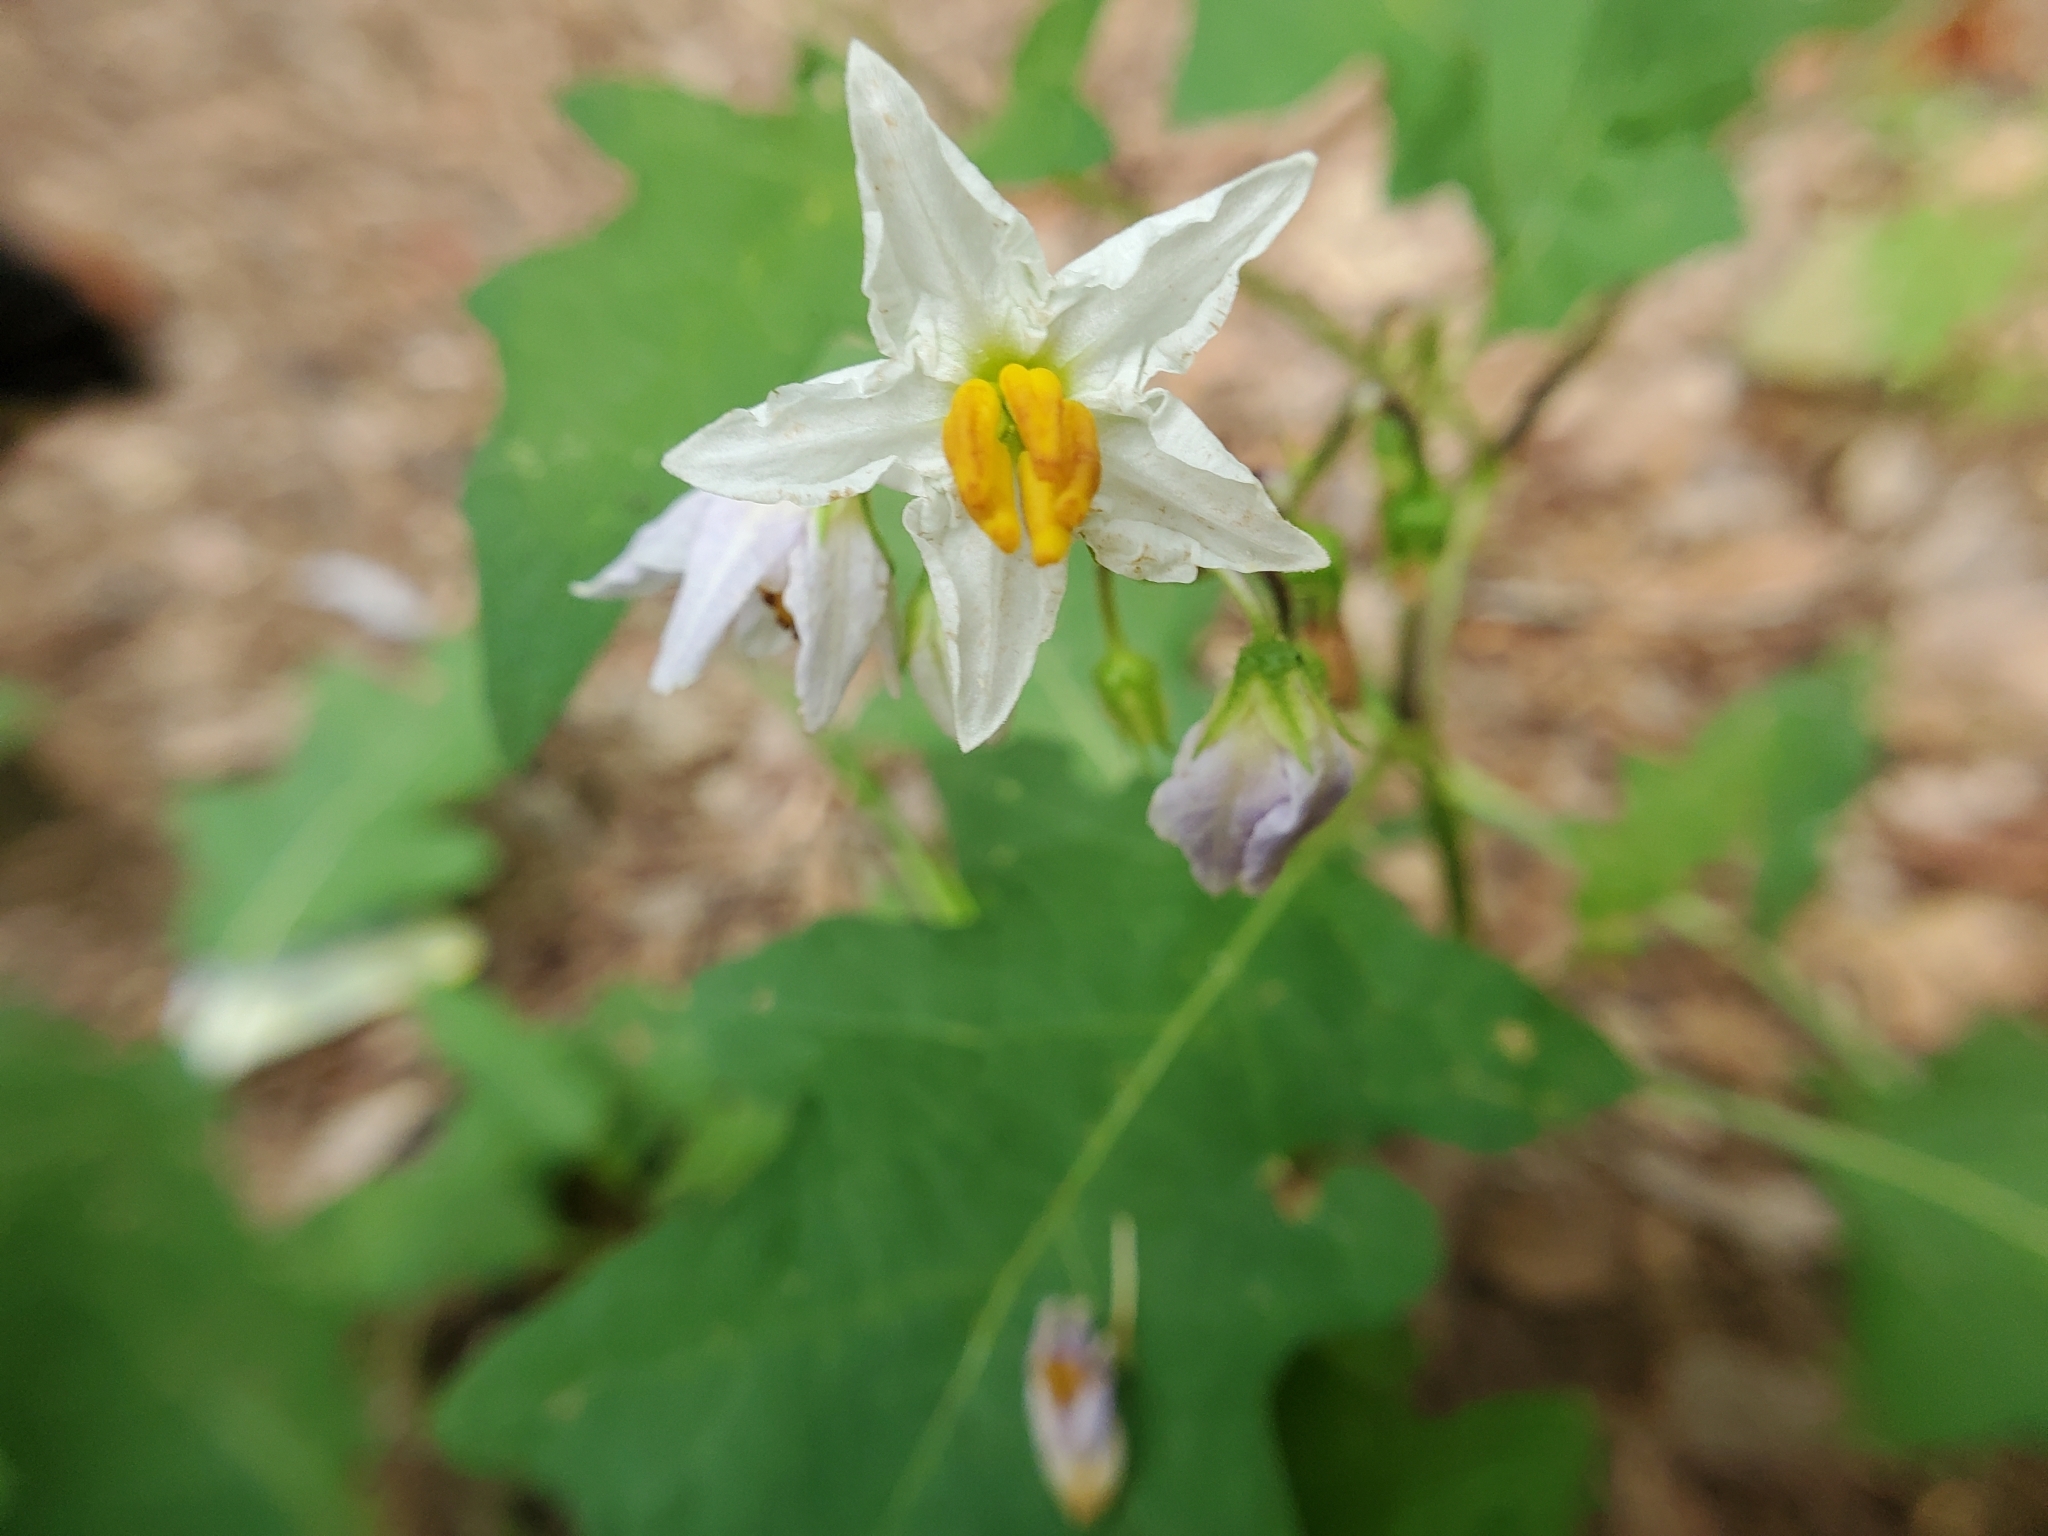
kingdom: Plantae
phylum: Tracheophyta
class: Magnoliopsida
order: Solanales
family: Solanaceae
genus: Solanum
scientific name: Solanum carolinense
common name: Horse-nettle
